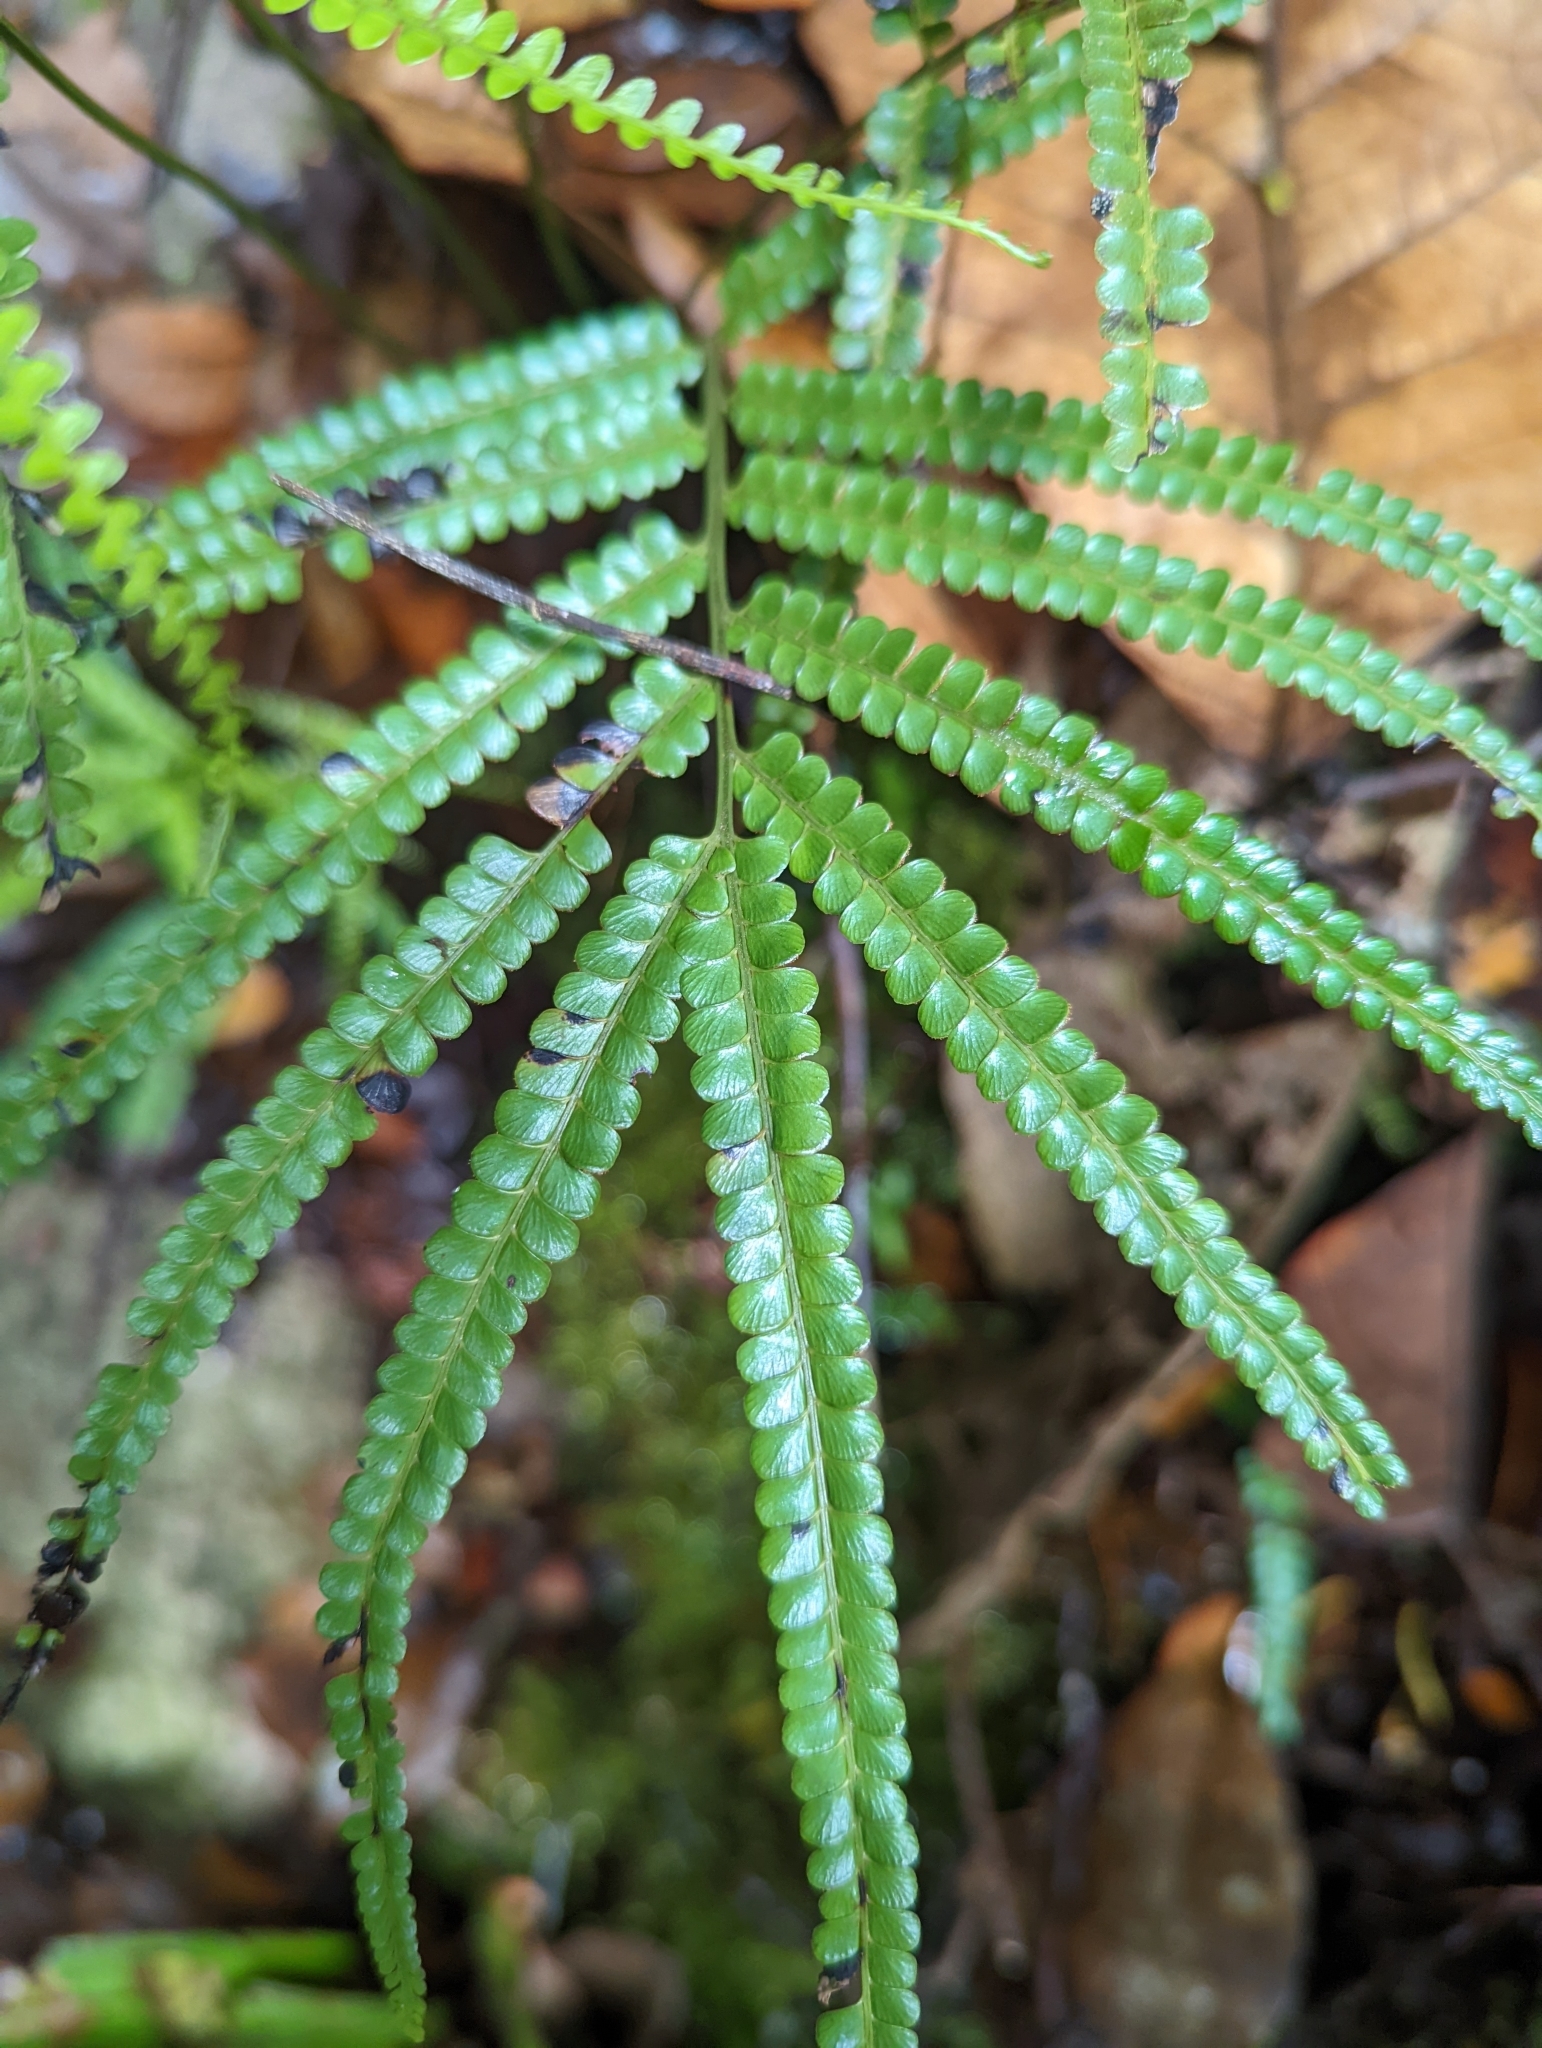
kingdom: Plantae
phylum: Tracheophyta
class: Polypodiopsida
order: Polypodiales
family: Lindsaeaceae
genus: Lindsaea
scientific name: Lindsaea borneensis
